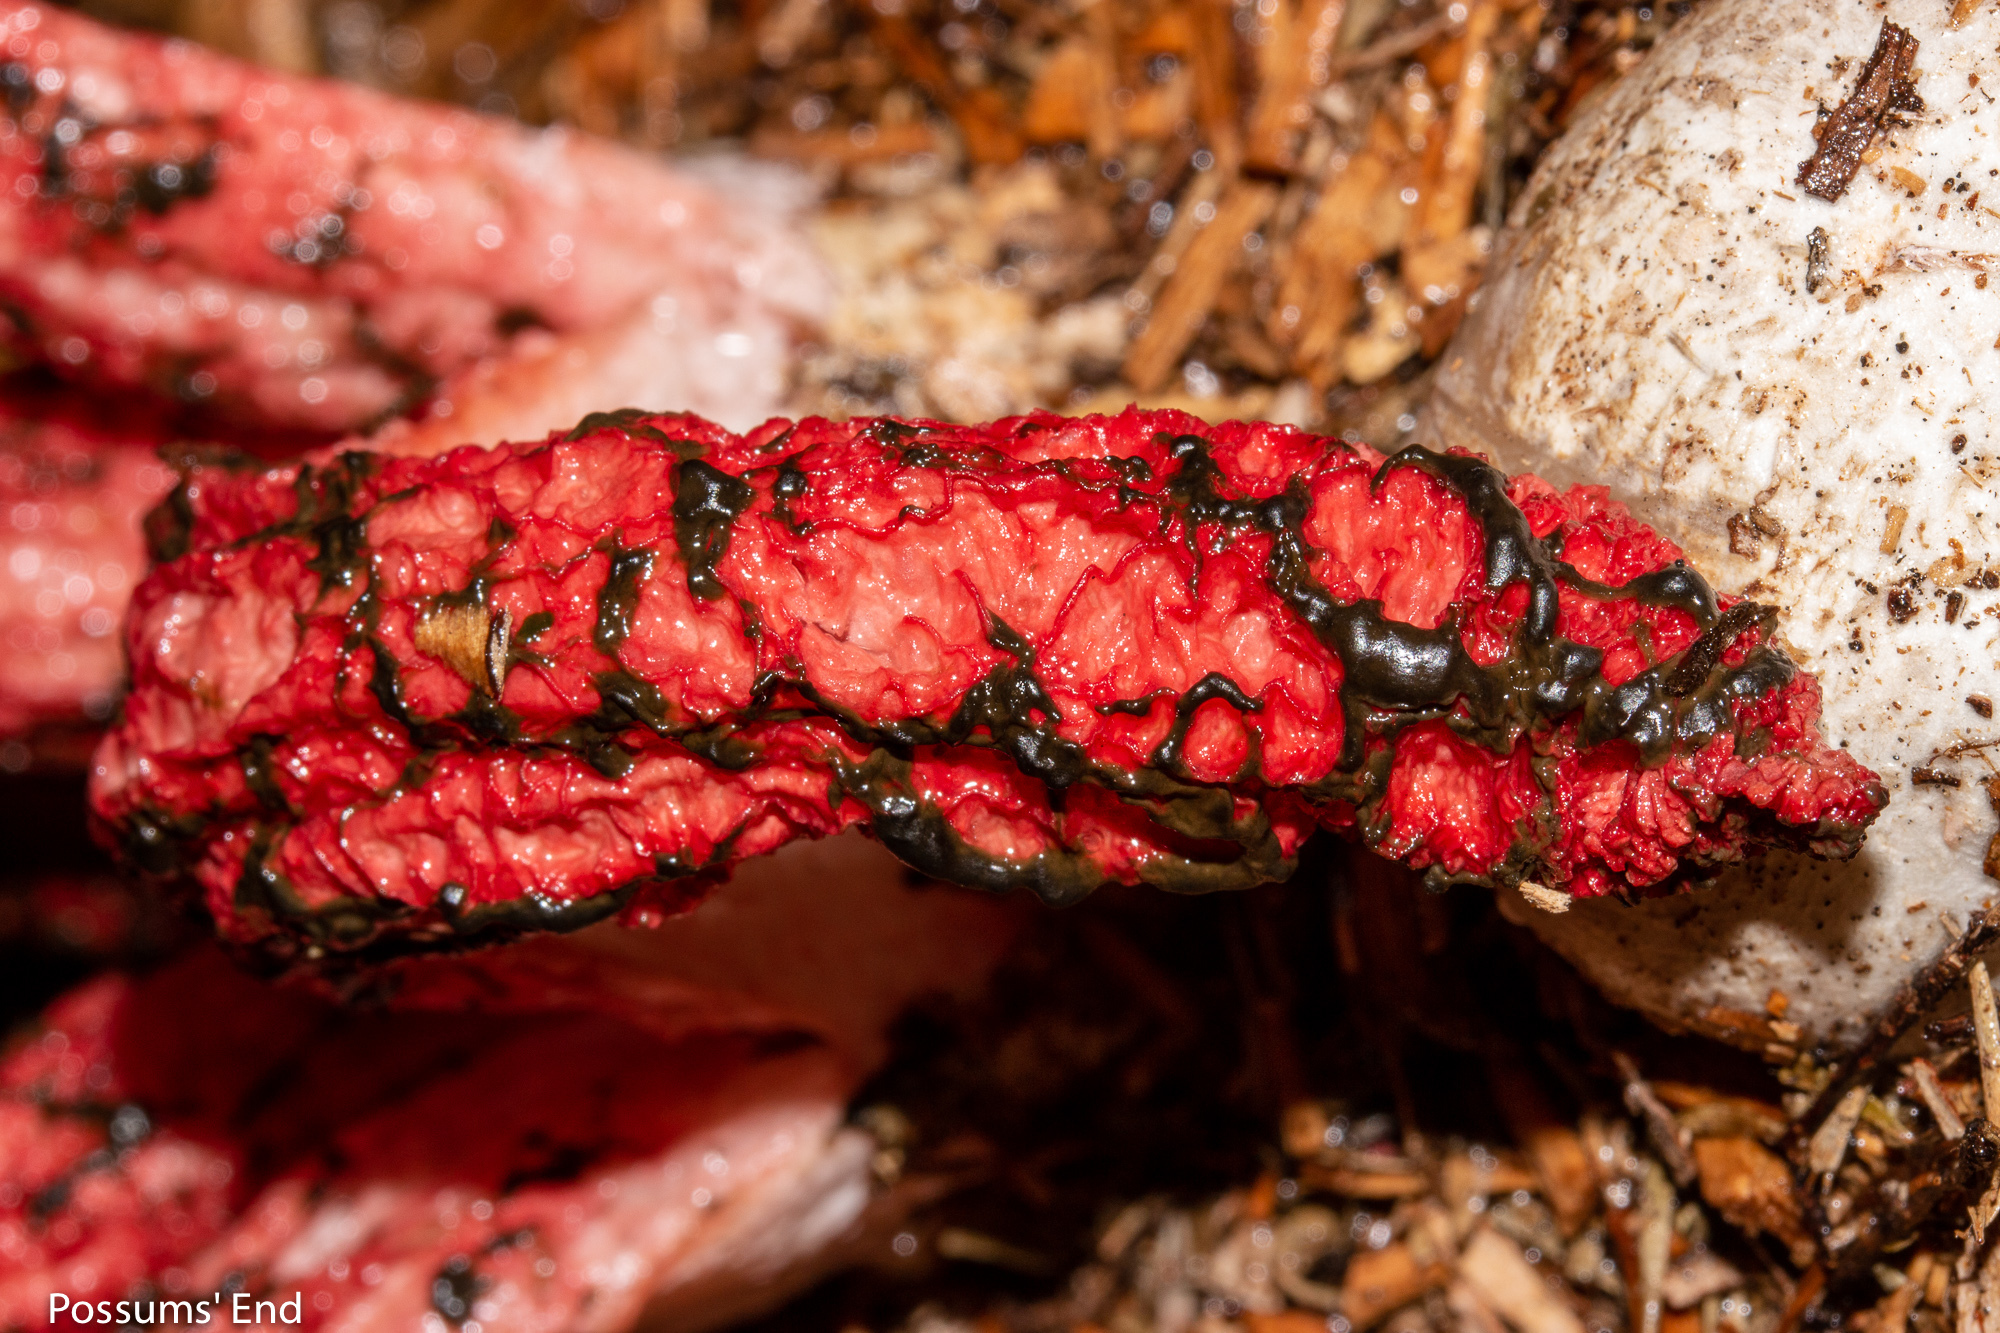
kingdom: Fungi
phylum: Basidiomycota
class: Agaricomycetes
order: Phallales
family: Phallaceae
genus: Clathrus
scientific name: Clathrus archeri
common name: Devil's fingers
